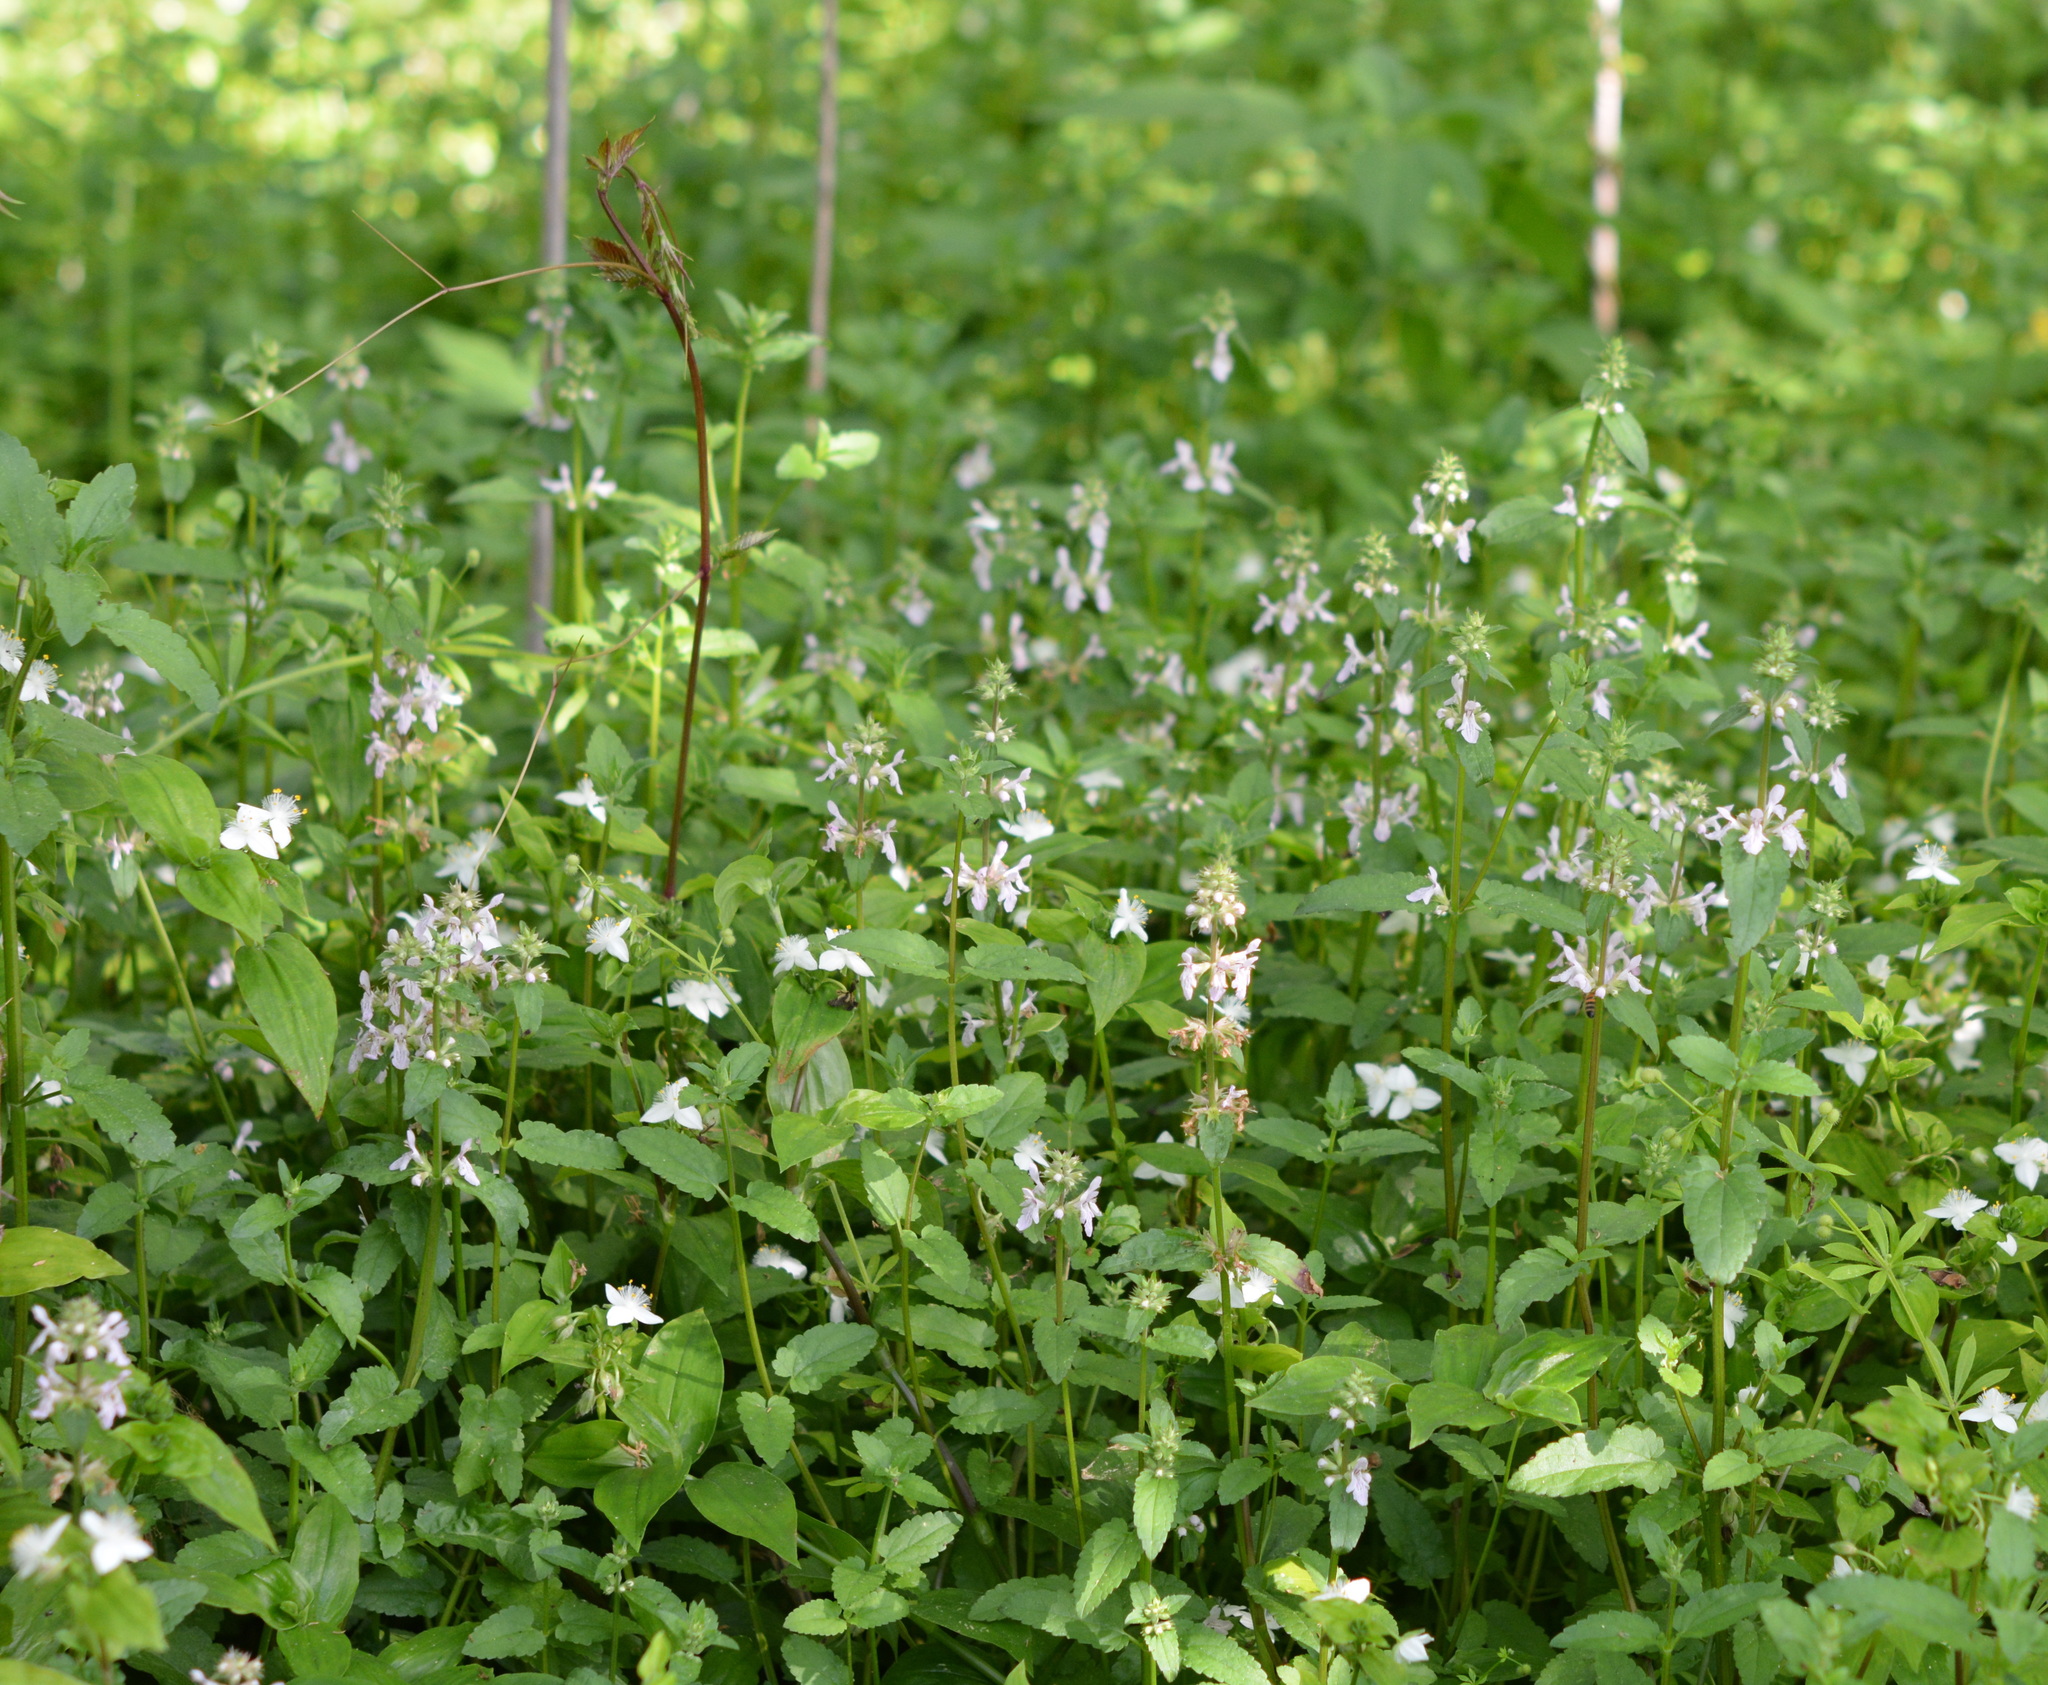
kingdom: Plantae
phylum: Tracheophyta
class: Magnoliopsida
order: Lamiales
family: Lamiaceae
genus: Stachys
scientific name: Stachys floridana
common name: Florida betony
